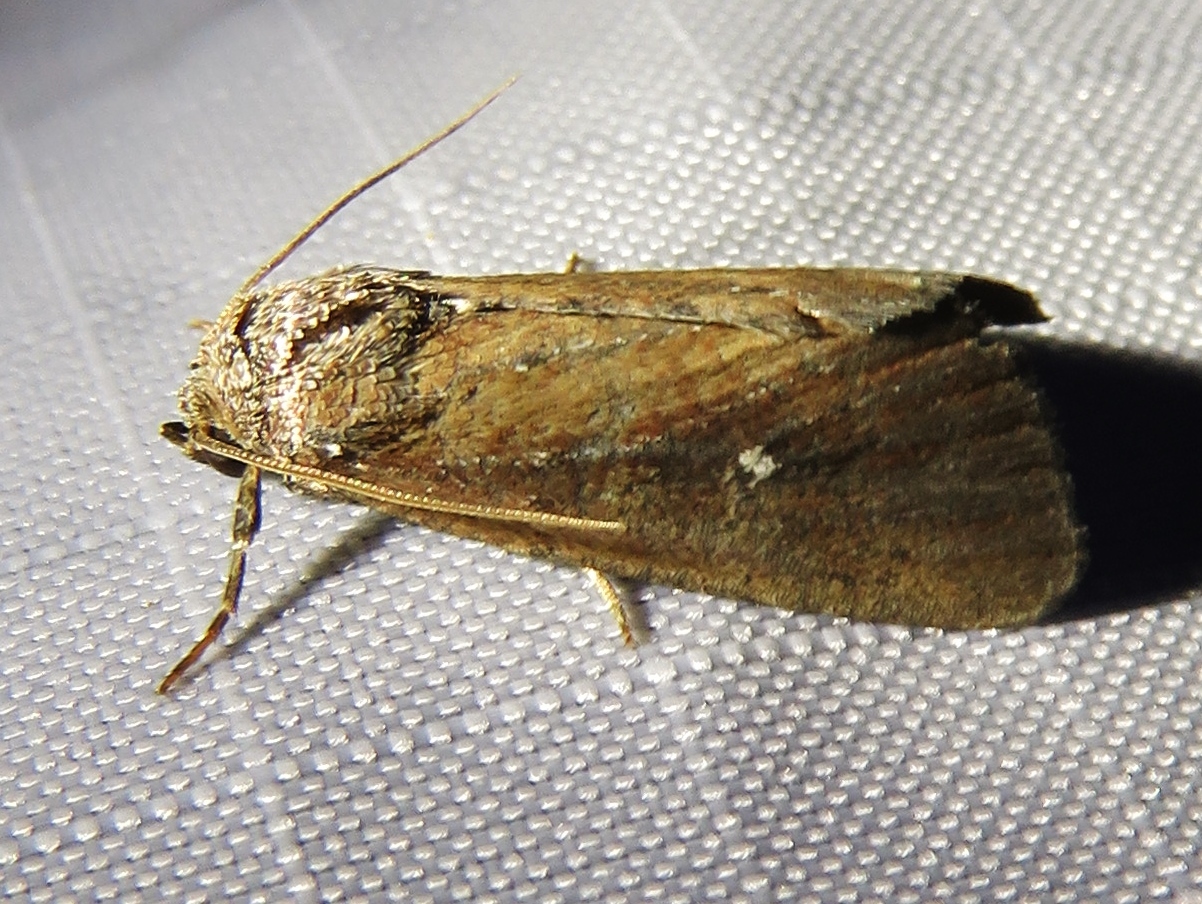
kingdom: Animalia
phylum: Arthropoda
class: Insecta
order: Lepidoptera
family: Noctuidae
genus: Condica
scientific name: Condica videns
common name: White-dotted groundling
